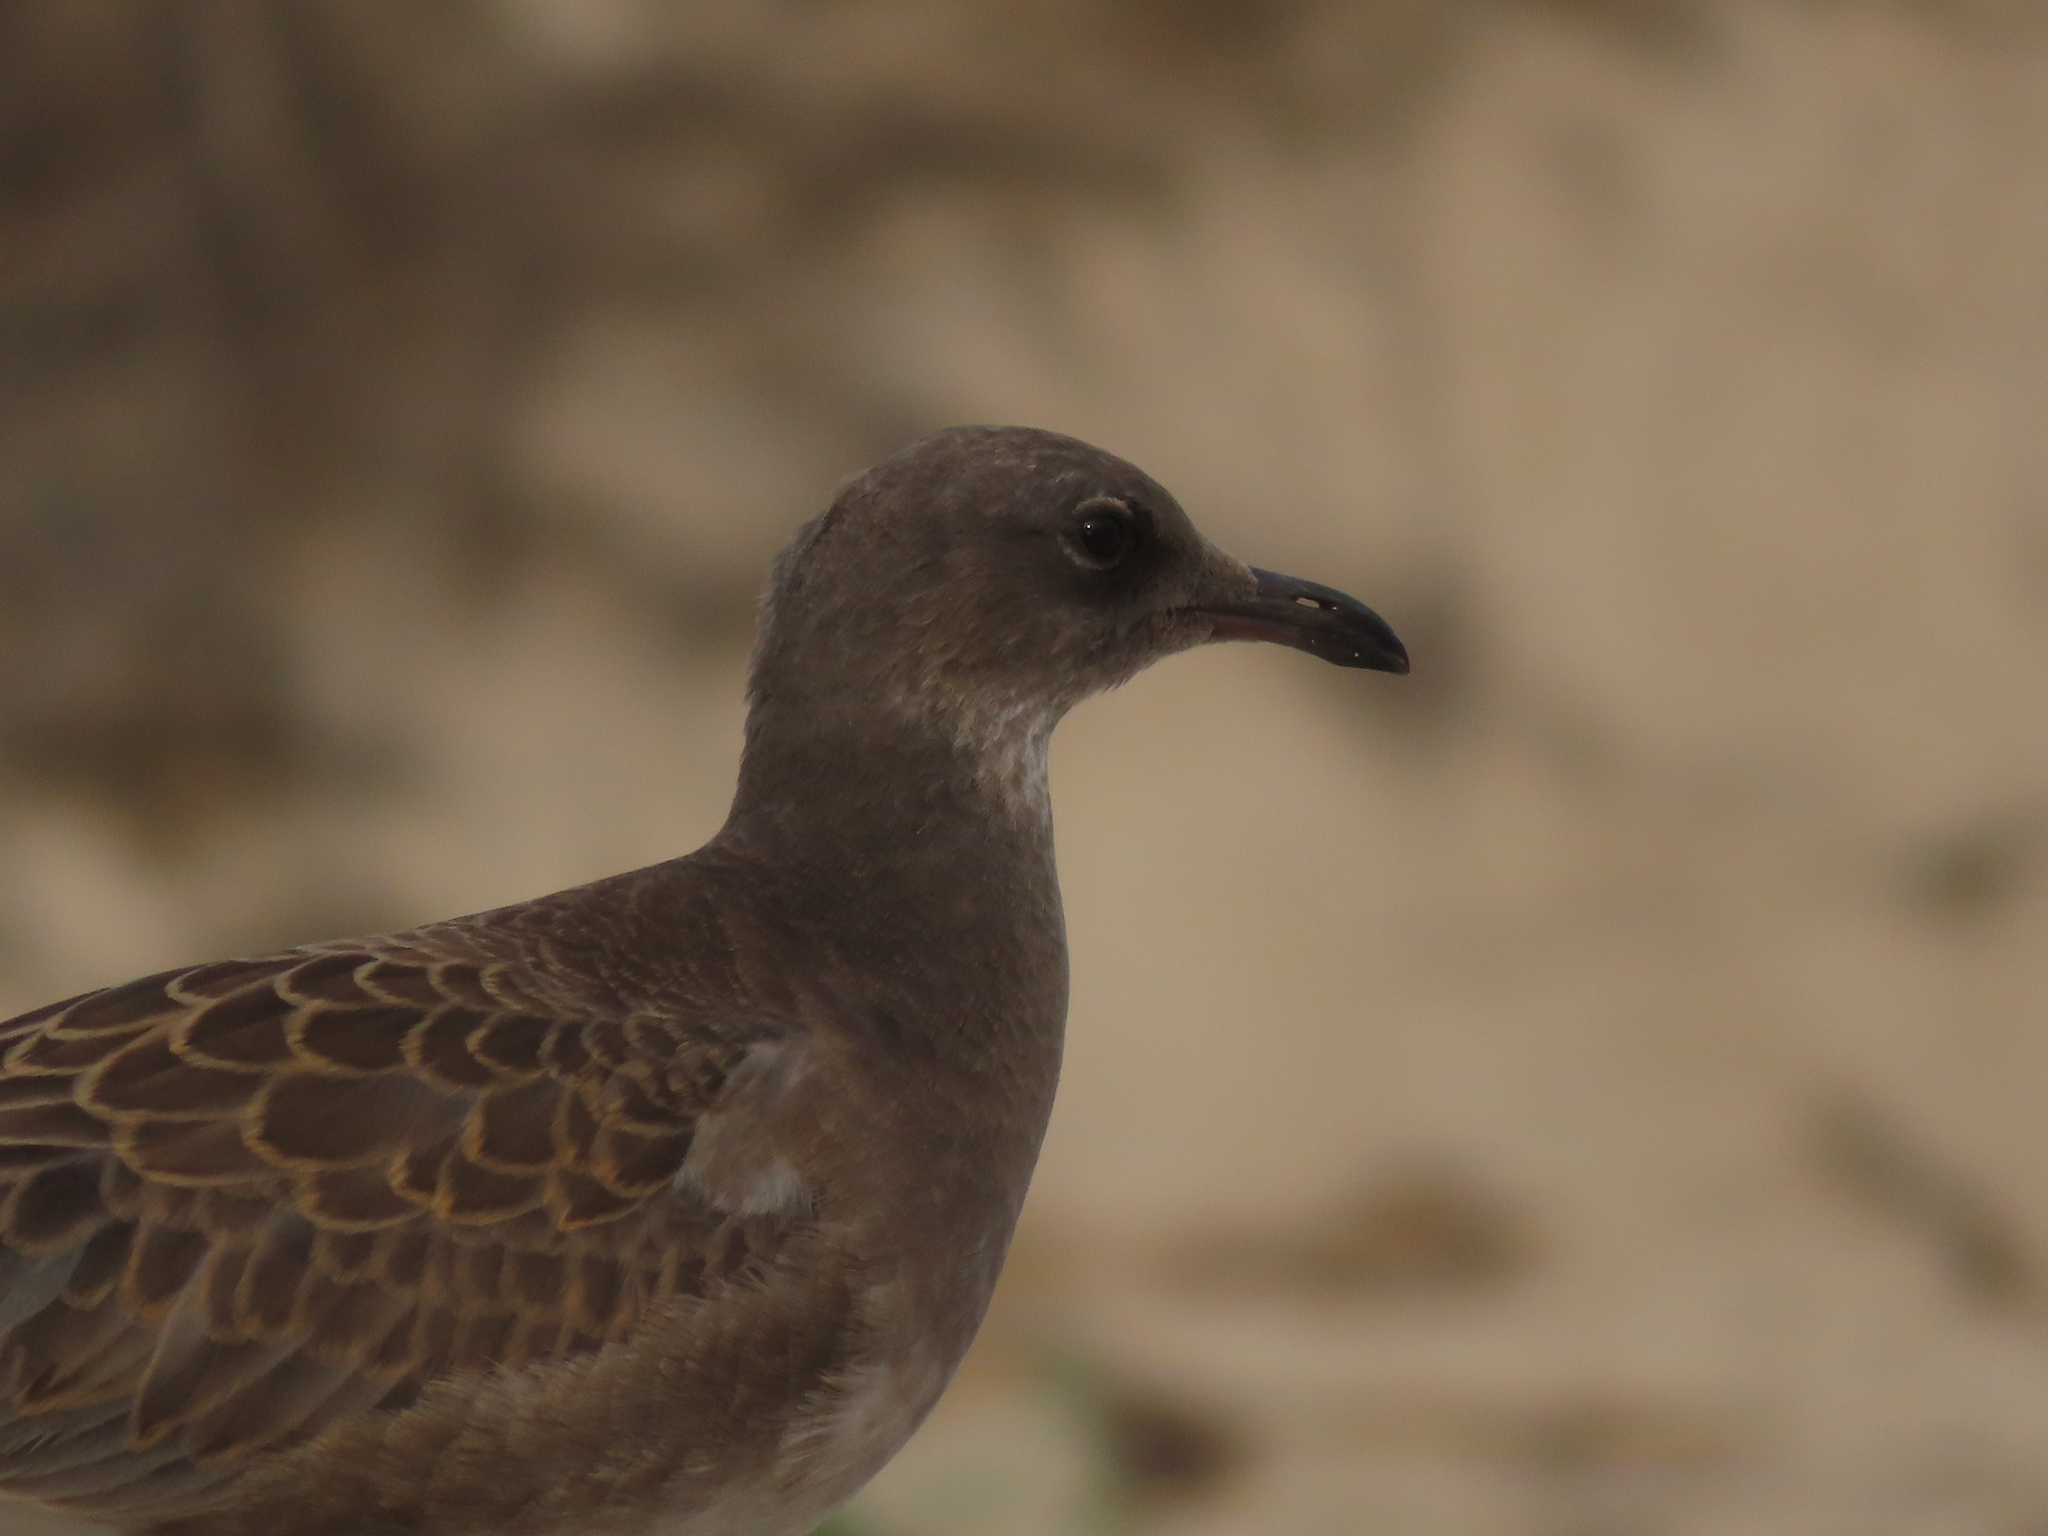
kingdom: Animalia
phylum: Chordata
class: Aves
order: Charadriiformes
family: Laridae
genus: Leucophaeus
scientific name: Leucophaeus atricilla
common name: Laughing gull
